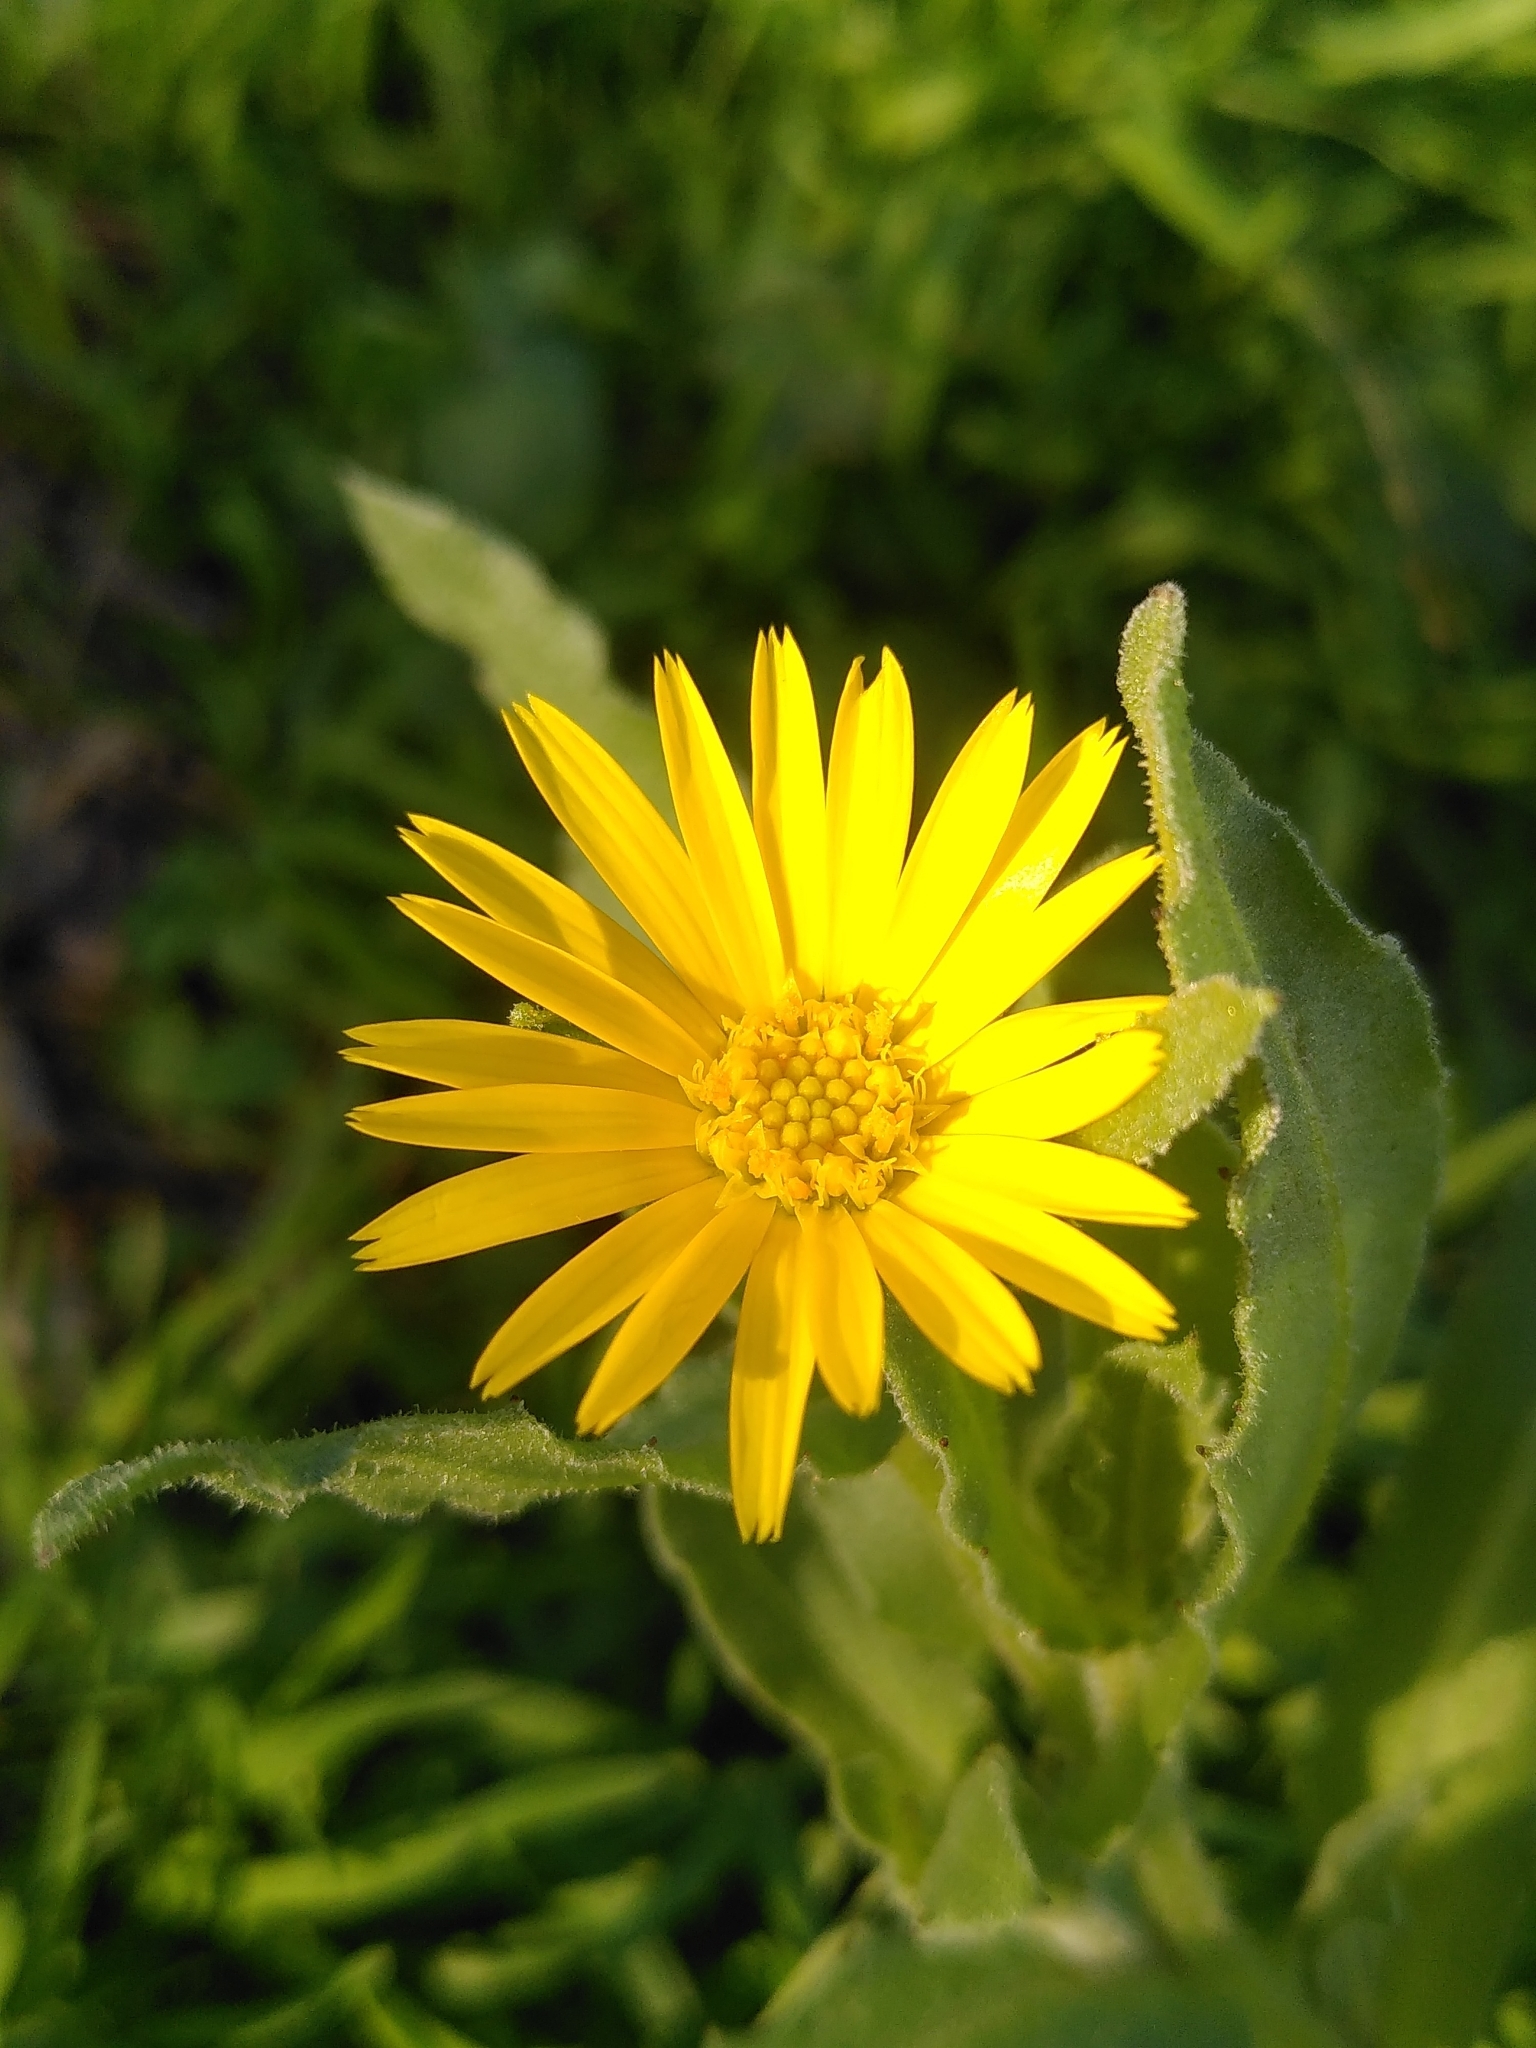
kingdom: Plantae
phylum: Tracheophyta
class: Magnoliopsida
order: Asterales
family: Asteraceae
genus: Calendula
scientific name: Calendula arvensis
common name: Field marigold
